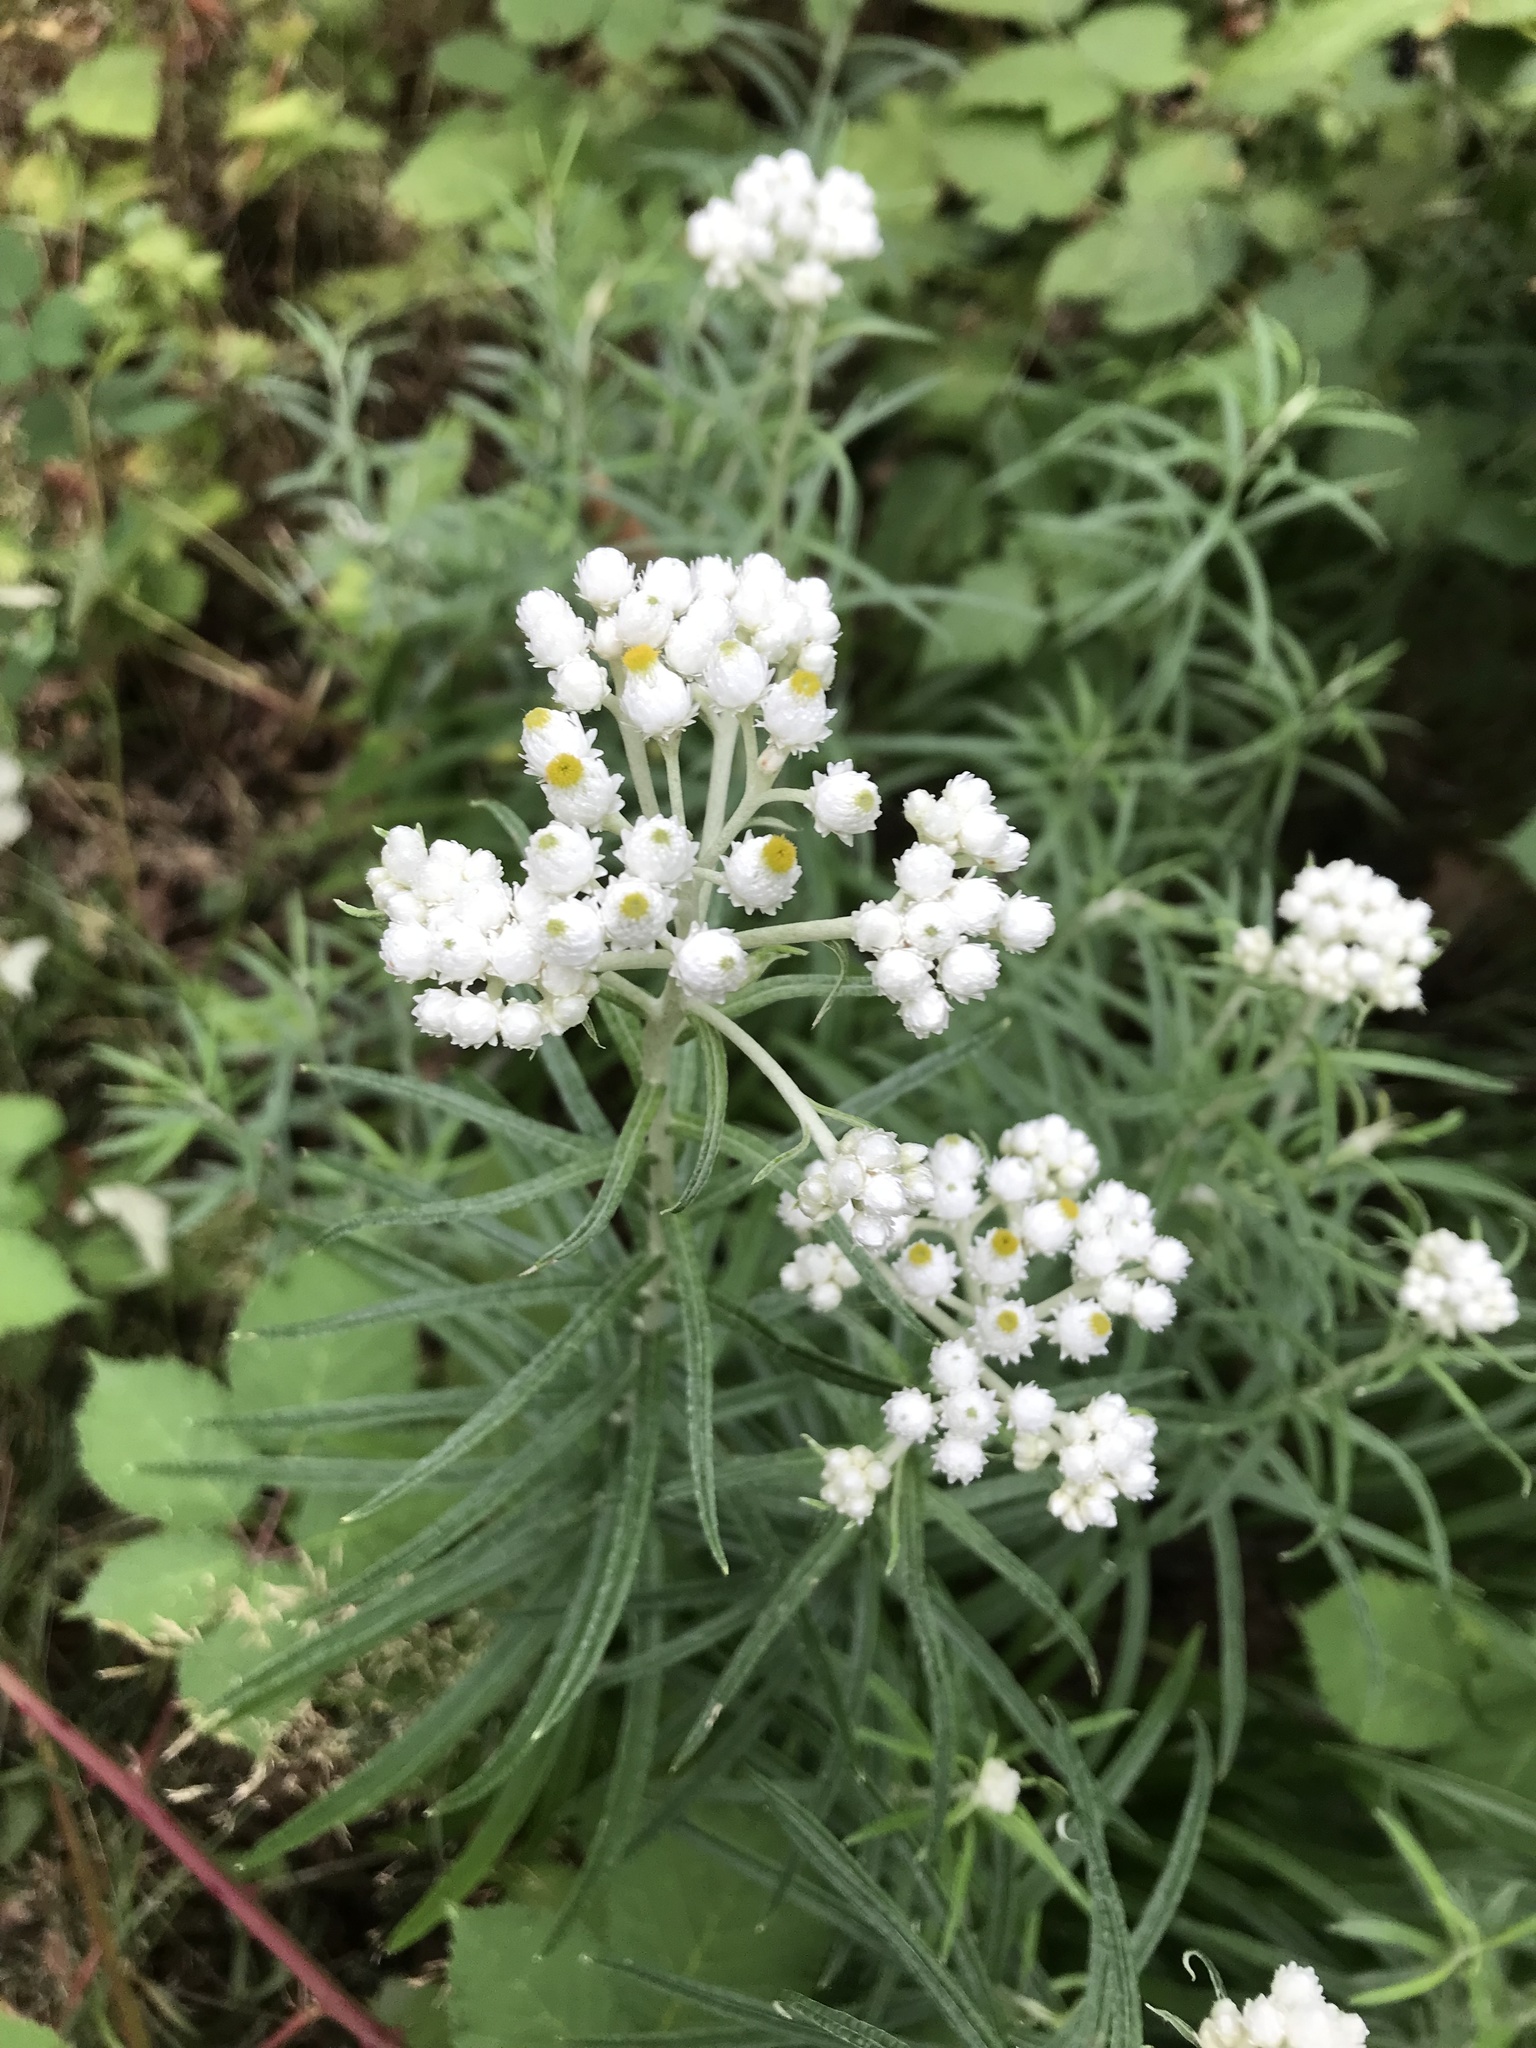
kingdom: Plantae
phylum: Tracheophyta
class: Magnoliopsida
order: Asterales
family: Asteraceae
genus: Anaphalis
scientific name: Anaphalis margaritacea
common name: Pearly everlasting
